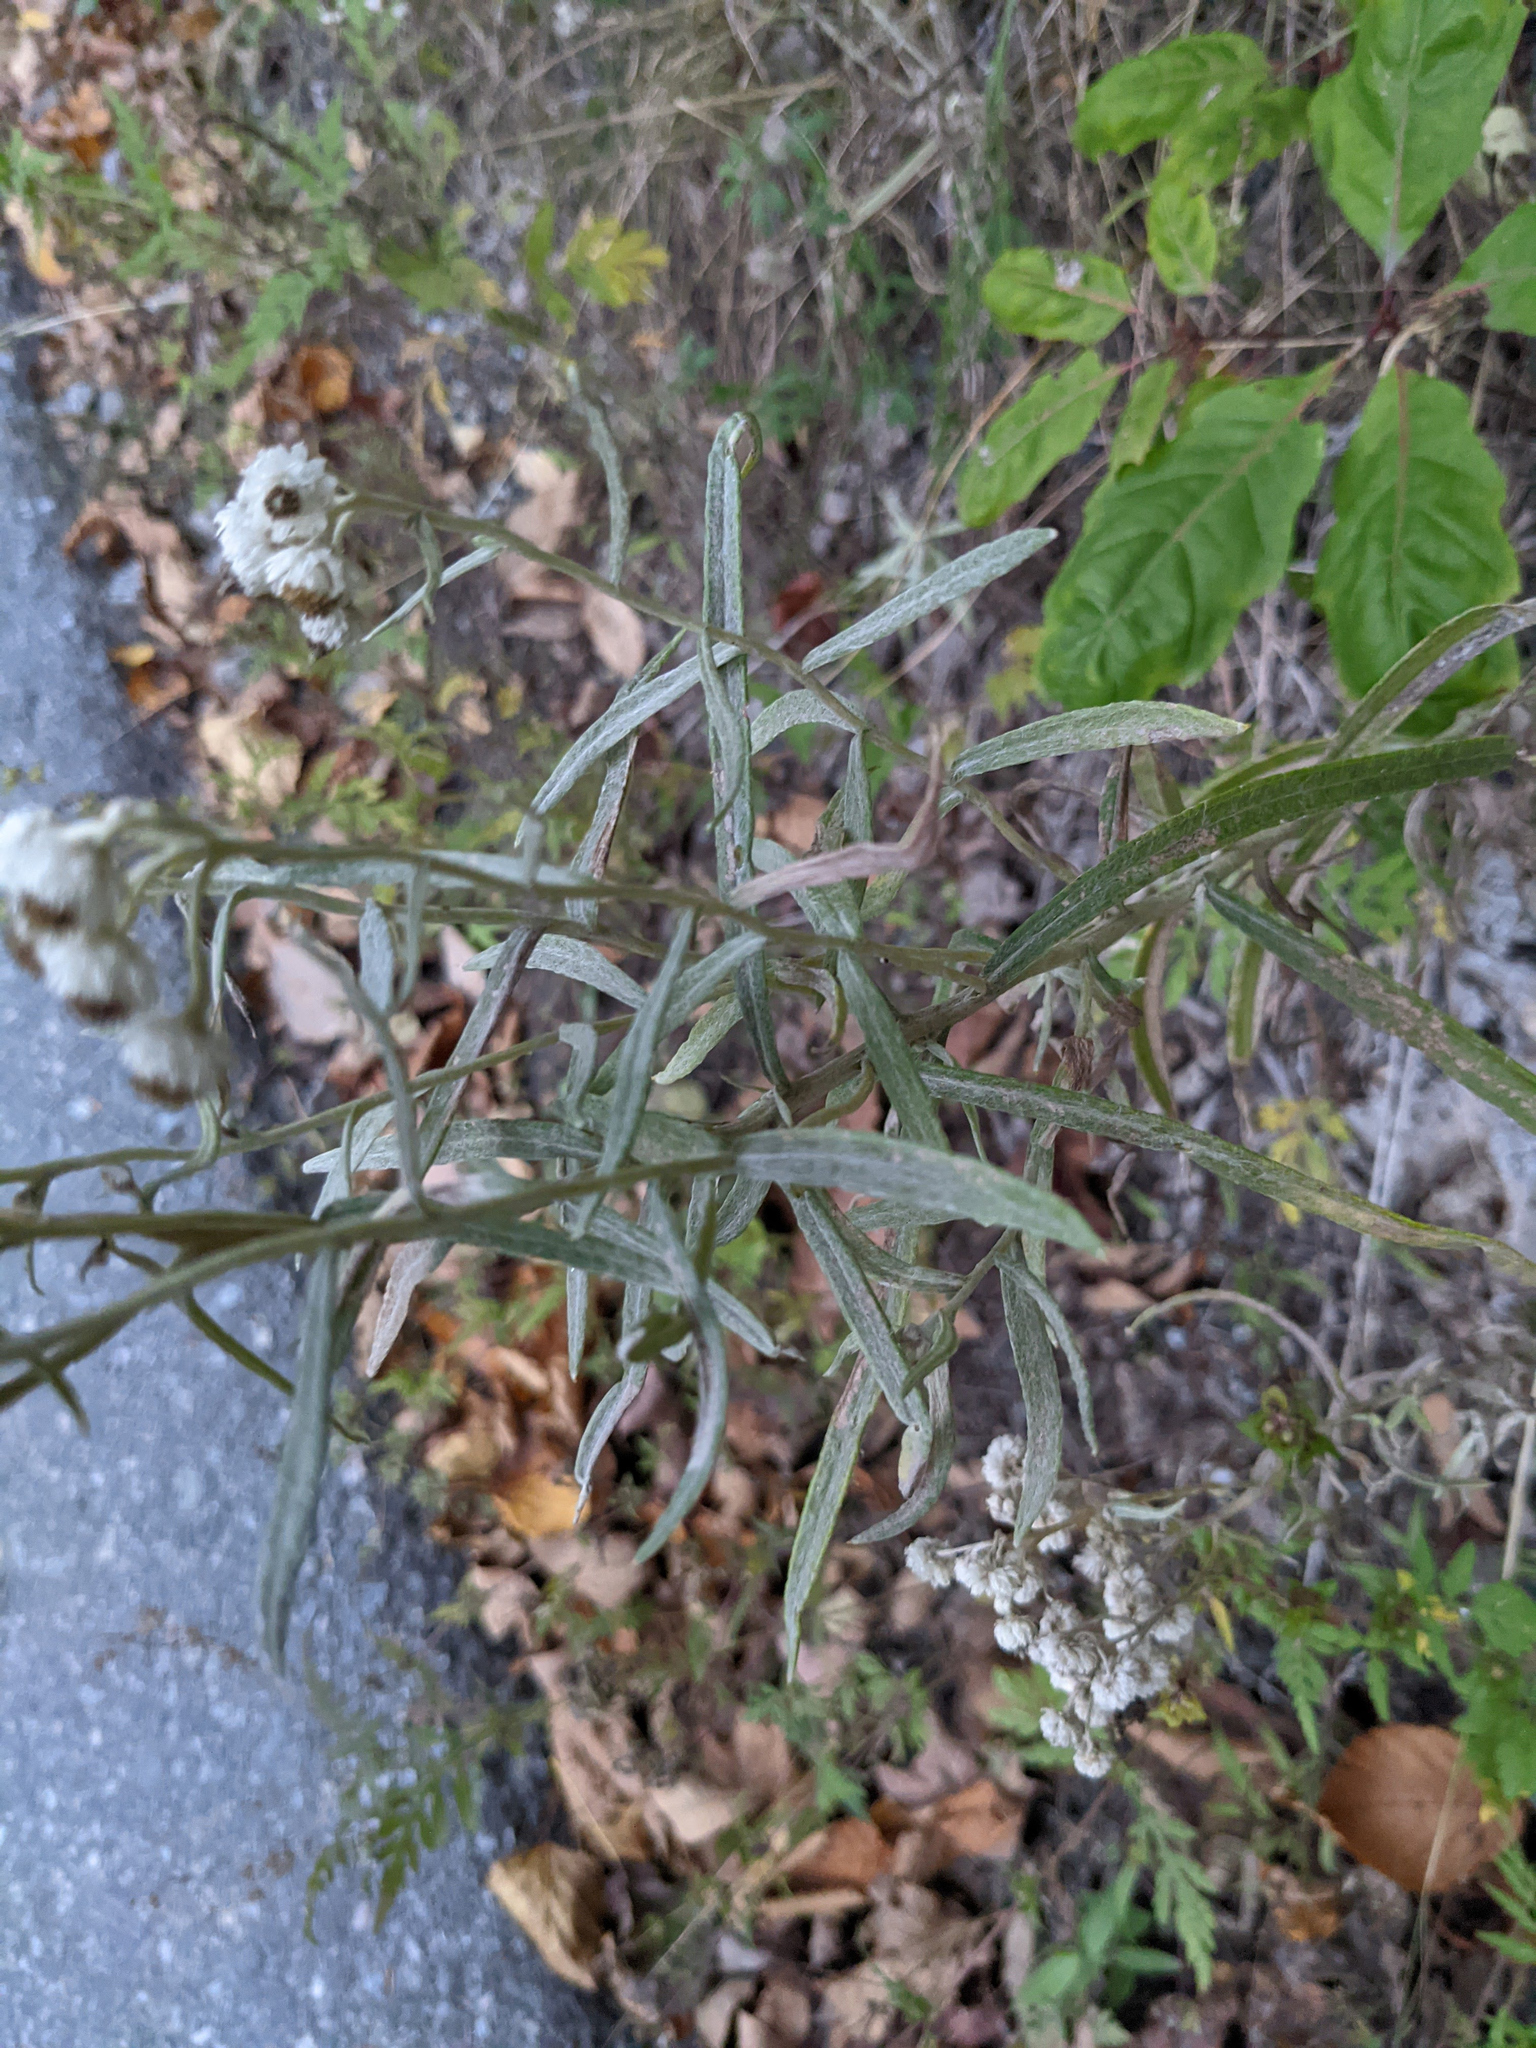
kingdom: Plantae
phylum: Tracheophyta
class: Magnoliopsida
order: Asterales
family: Asteraceae
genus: Anaphalis
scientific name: Anaphalis margaritacea
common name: Pearly everlasting
